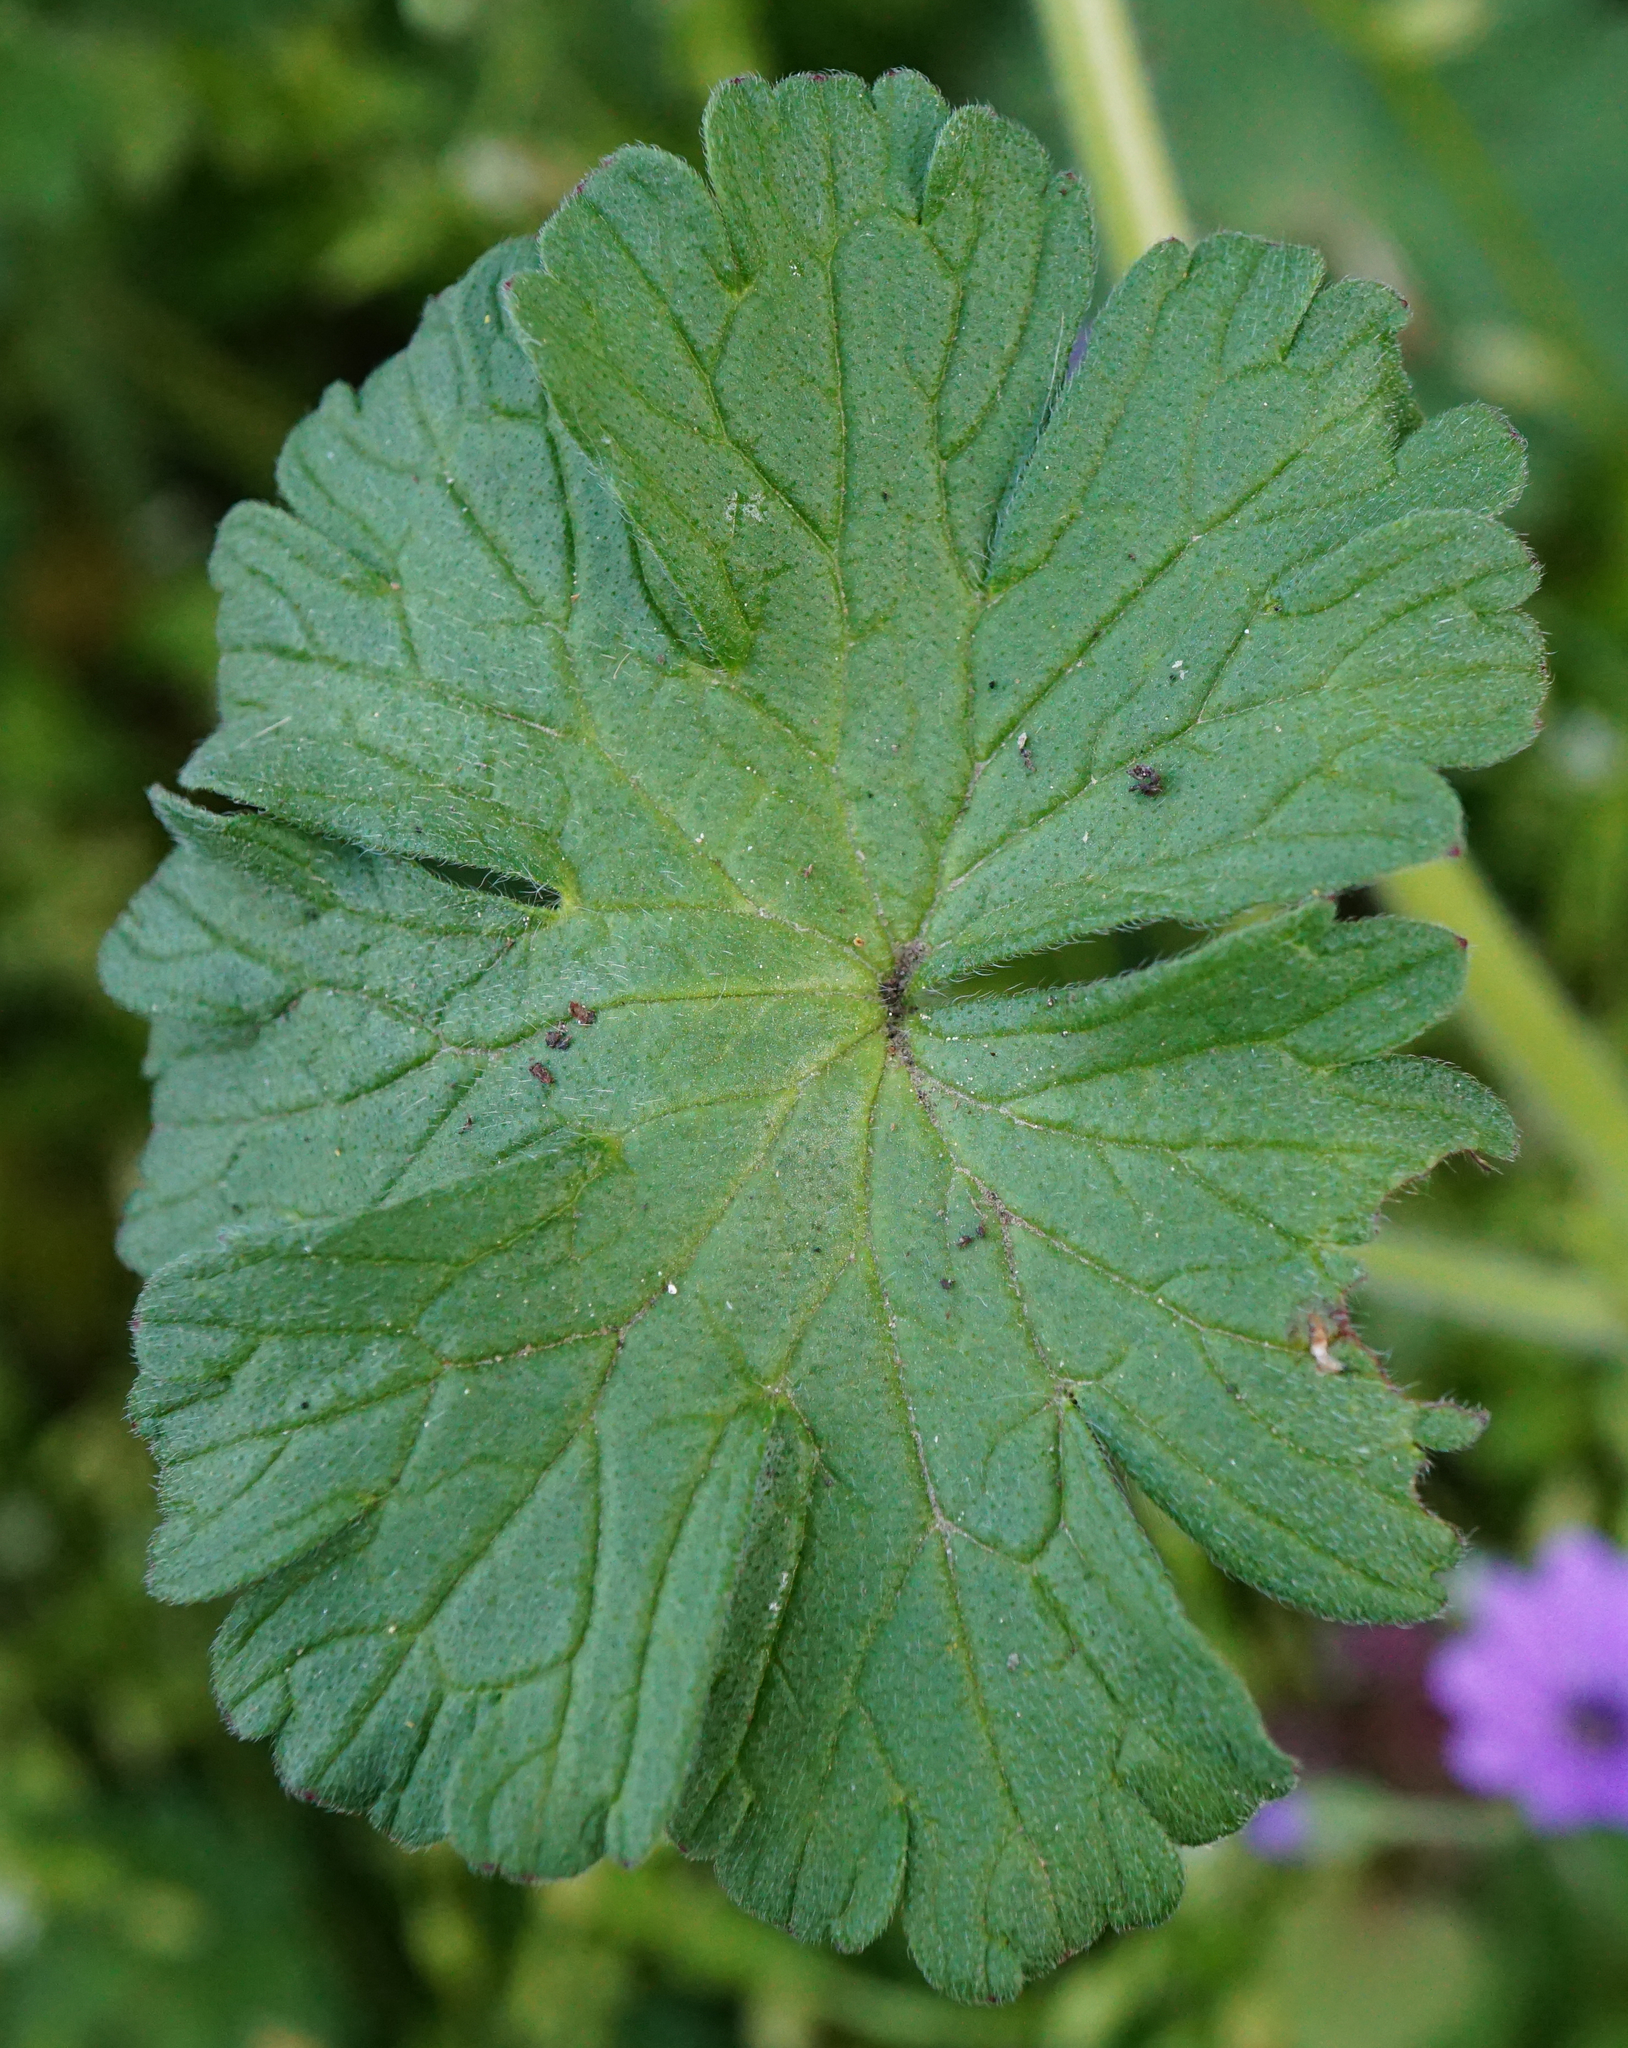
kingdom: Plantae
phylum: Tracheophyta
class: Magnoliopsida
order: Geraniales
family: Geraniaceae
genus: Geranium
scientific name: Geranium pyrenaicum
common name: Hedgerow crane's-bill
